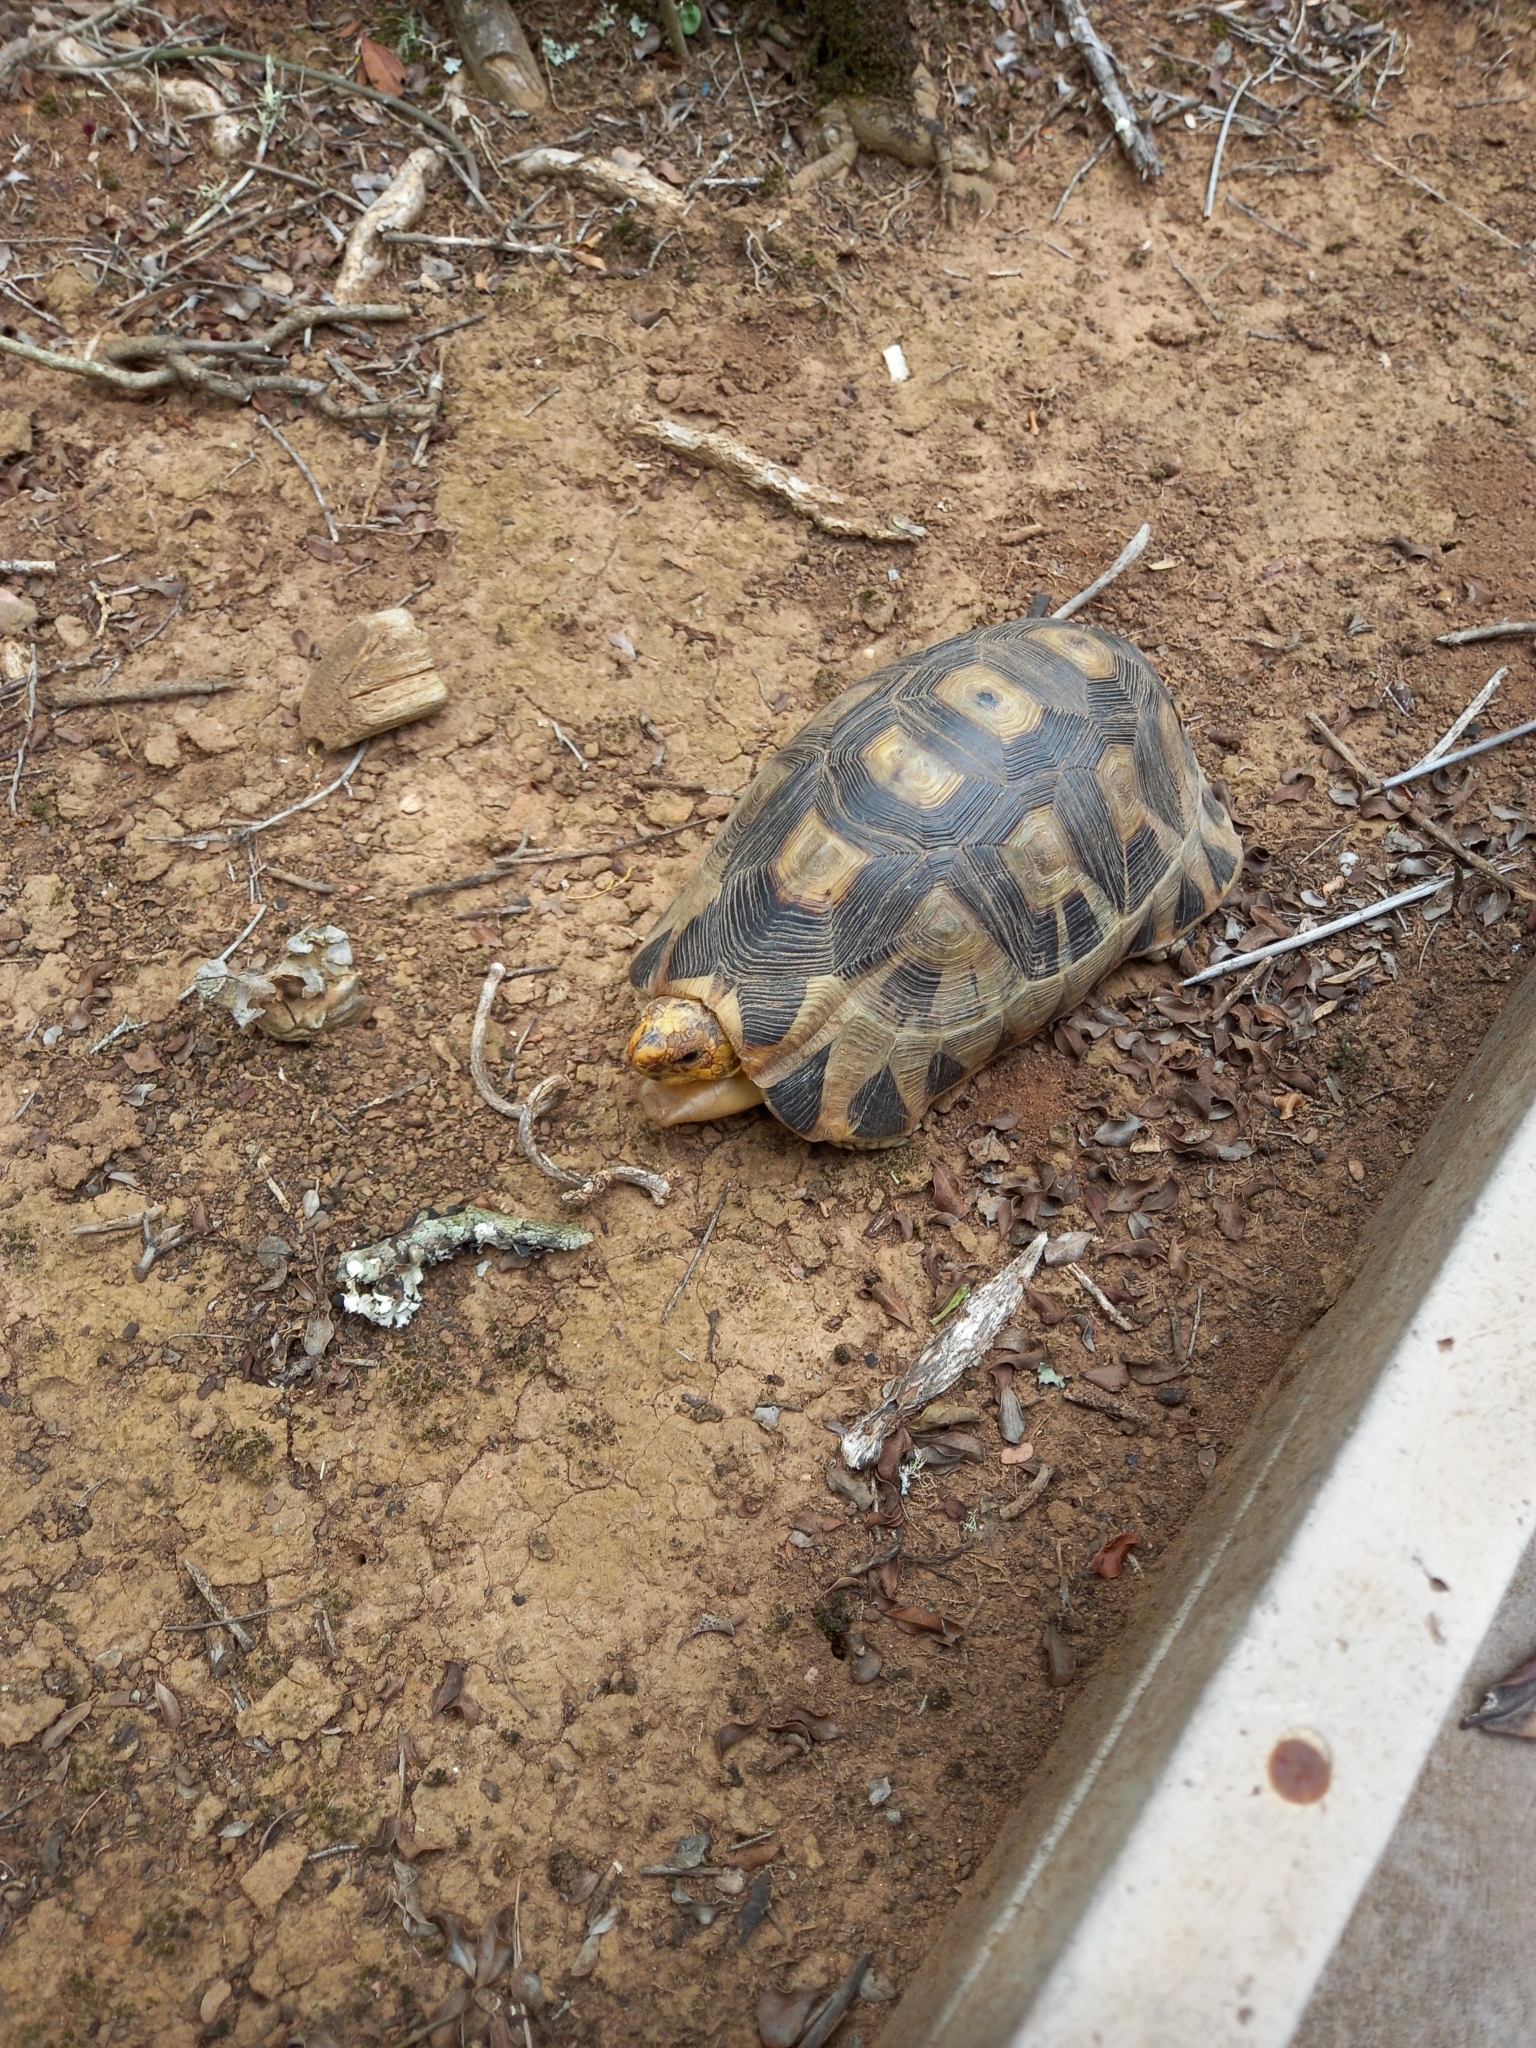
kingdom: Animalia
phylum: Chordata
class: Testudines
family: Testudinidae
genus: Chersina
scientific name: Chersina angulata
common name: South african bowsprit tortoise
